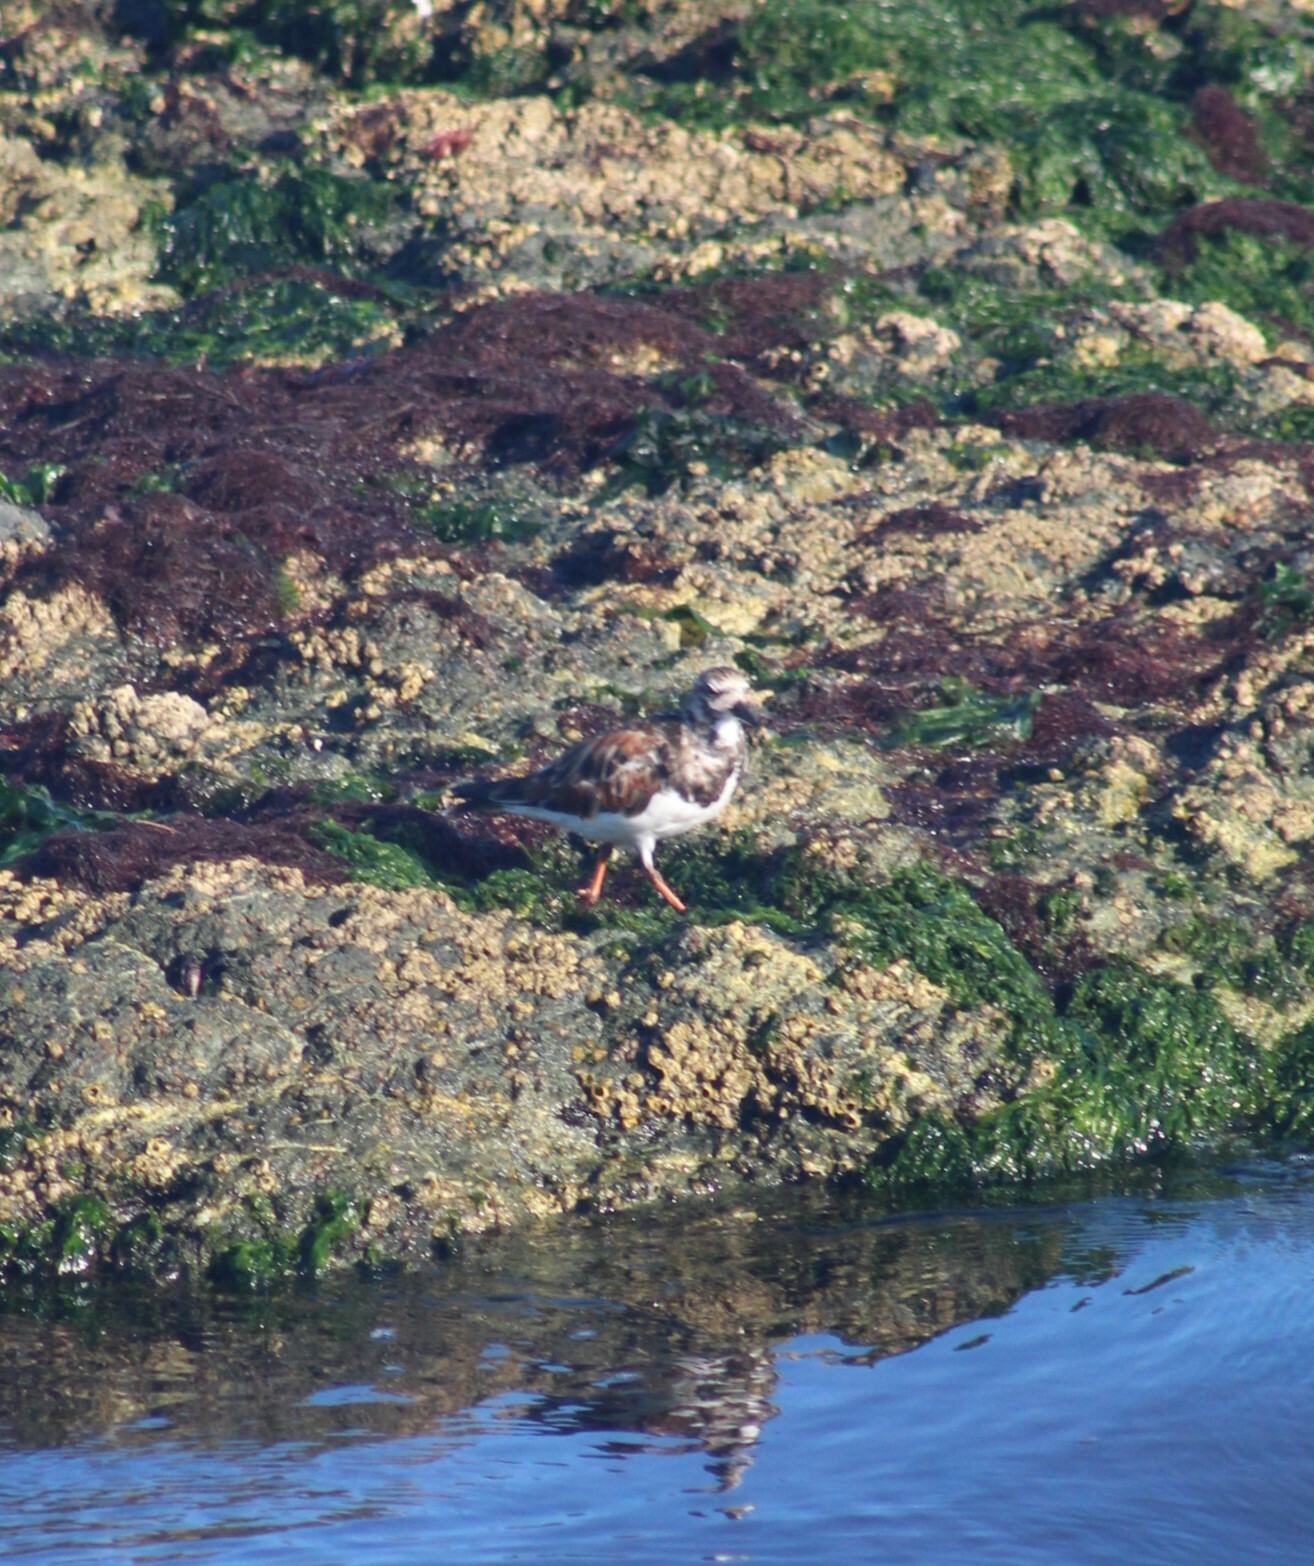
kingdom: Animalia
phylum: Chordata
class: Aves
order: Charadriiformes
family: Scolopacidae
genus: Arenaria
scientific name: Arenaria interpres
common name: Ruddy turnstone
